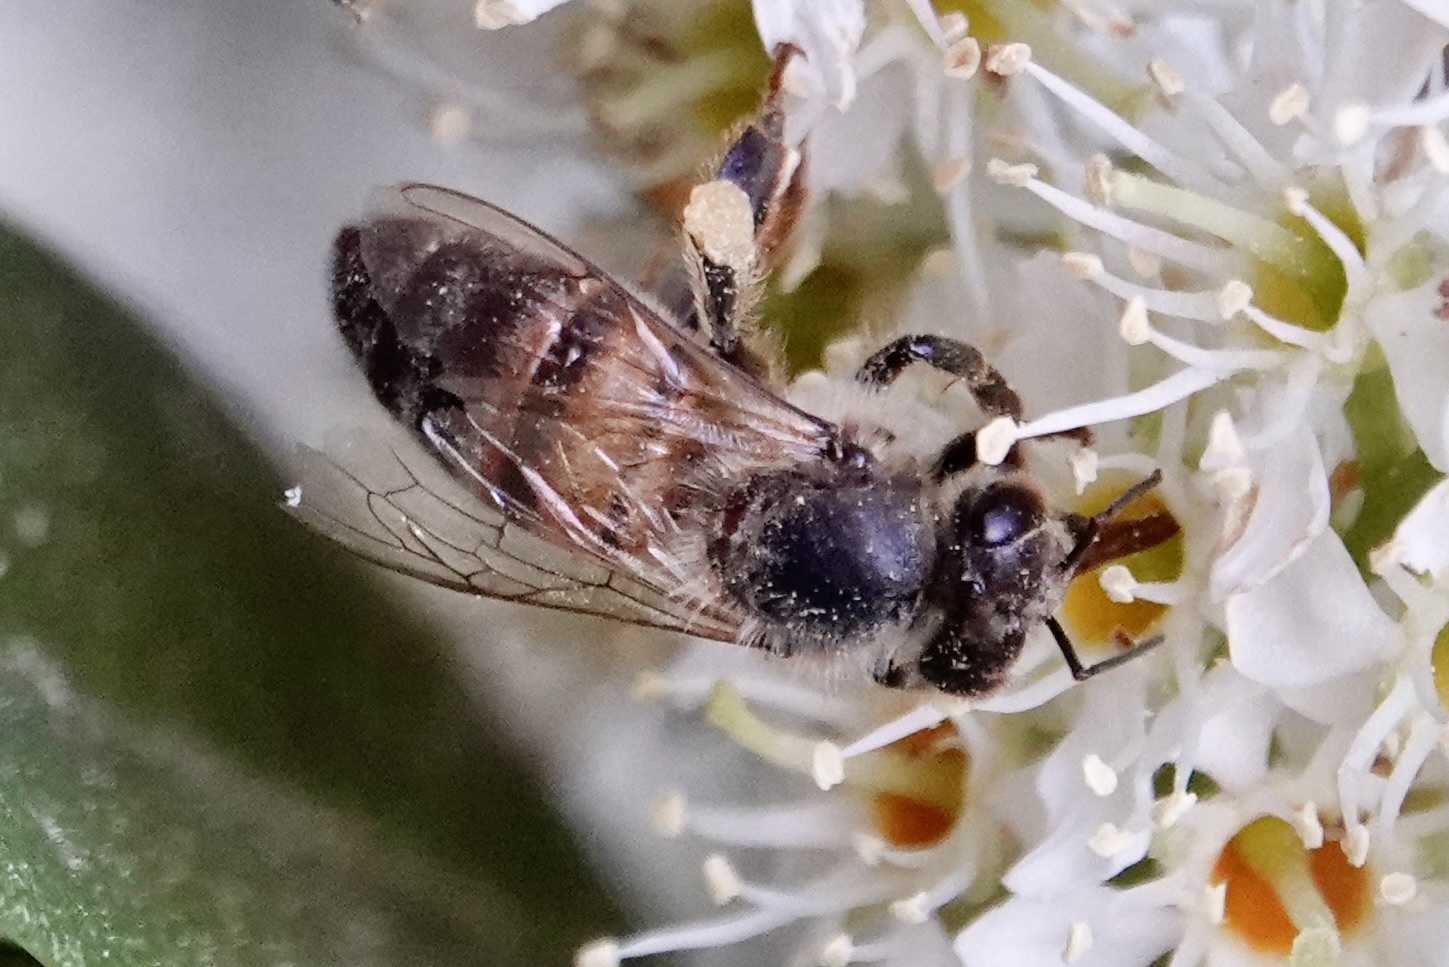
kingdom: Animalia
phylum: Arthropoda
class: Insecta
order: Hymenoptera
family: Apidae
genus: Apis
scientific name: Apis mellifera
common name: Honey bee
